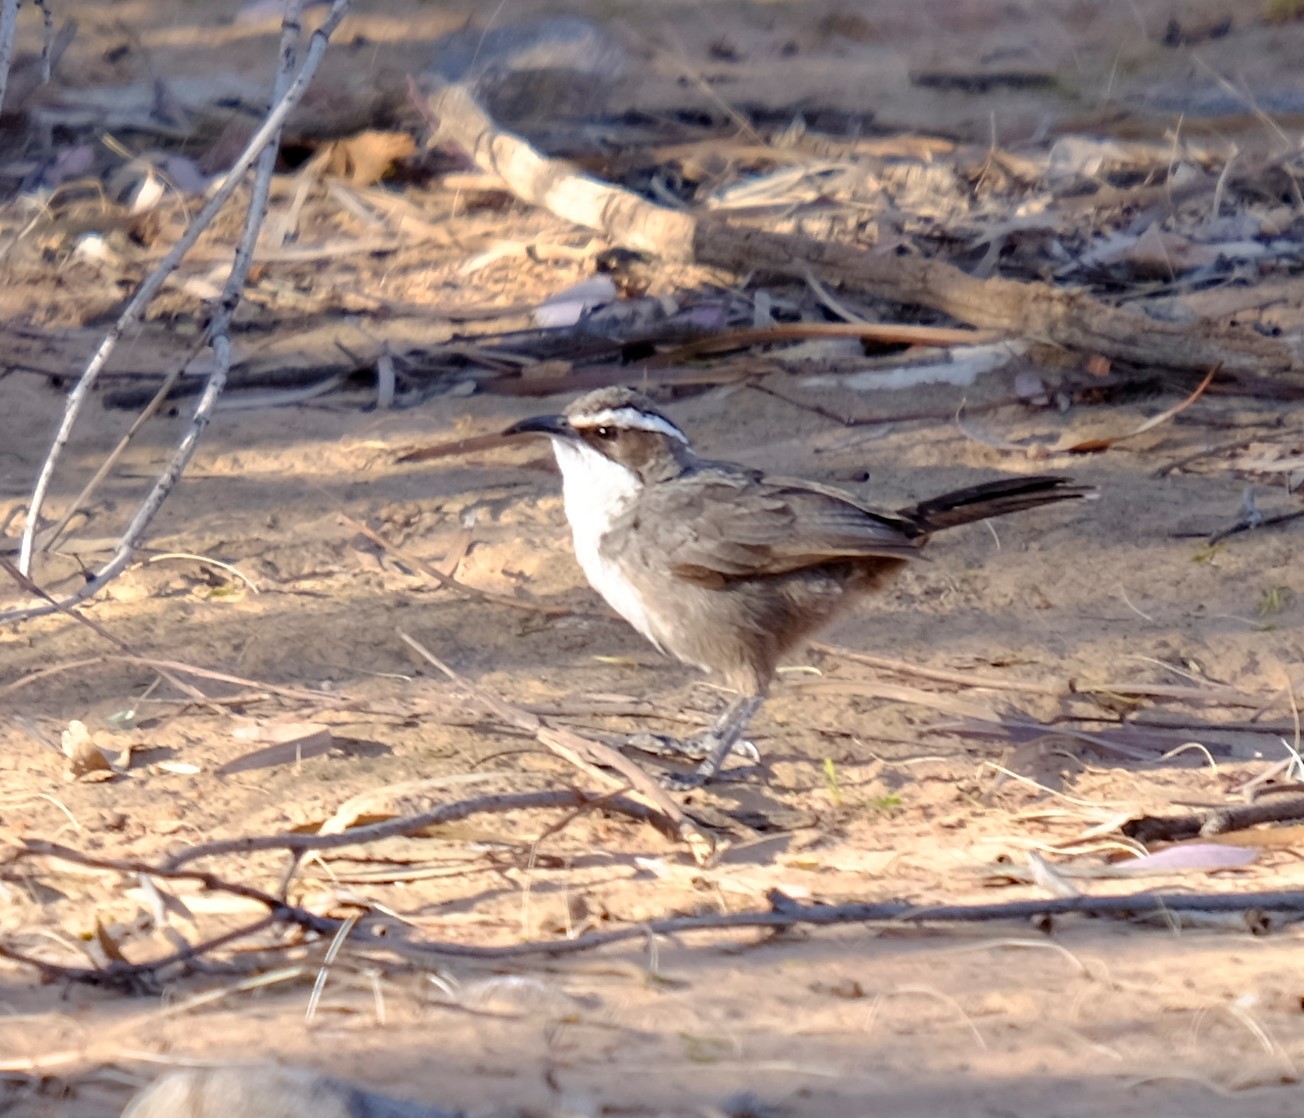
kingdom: Animalia
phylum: Chordata
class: Aves
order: Passeriformes
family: Pomatostomidae
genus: Pomatostomus
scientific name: Pomatostomus superciliosus
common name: White-browed babbler
